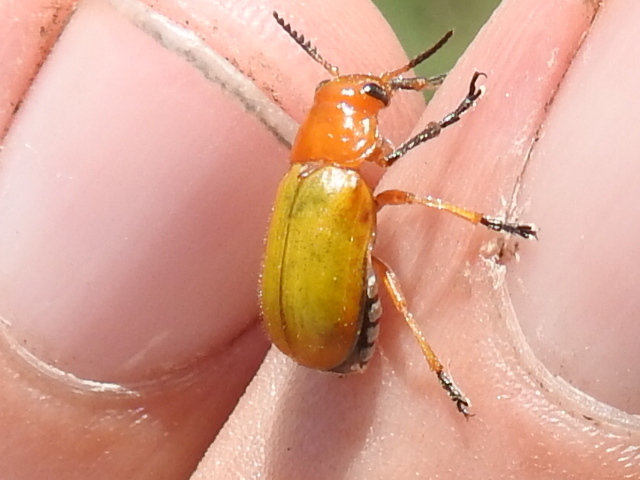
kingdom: Animalia
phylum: Arthropoda
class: Insecta
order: Coleoptera
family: Chrysomelidae
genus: Anomoea
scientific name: Anomoea laticlavia
